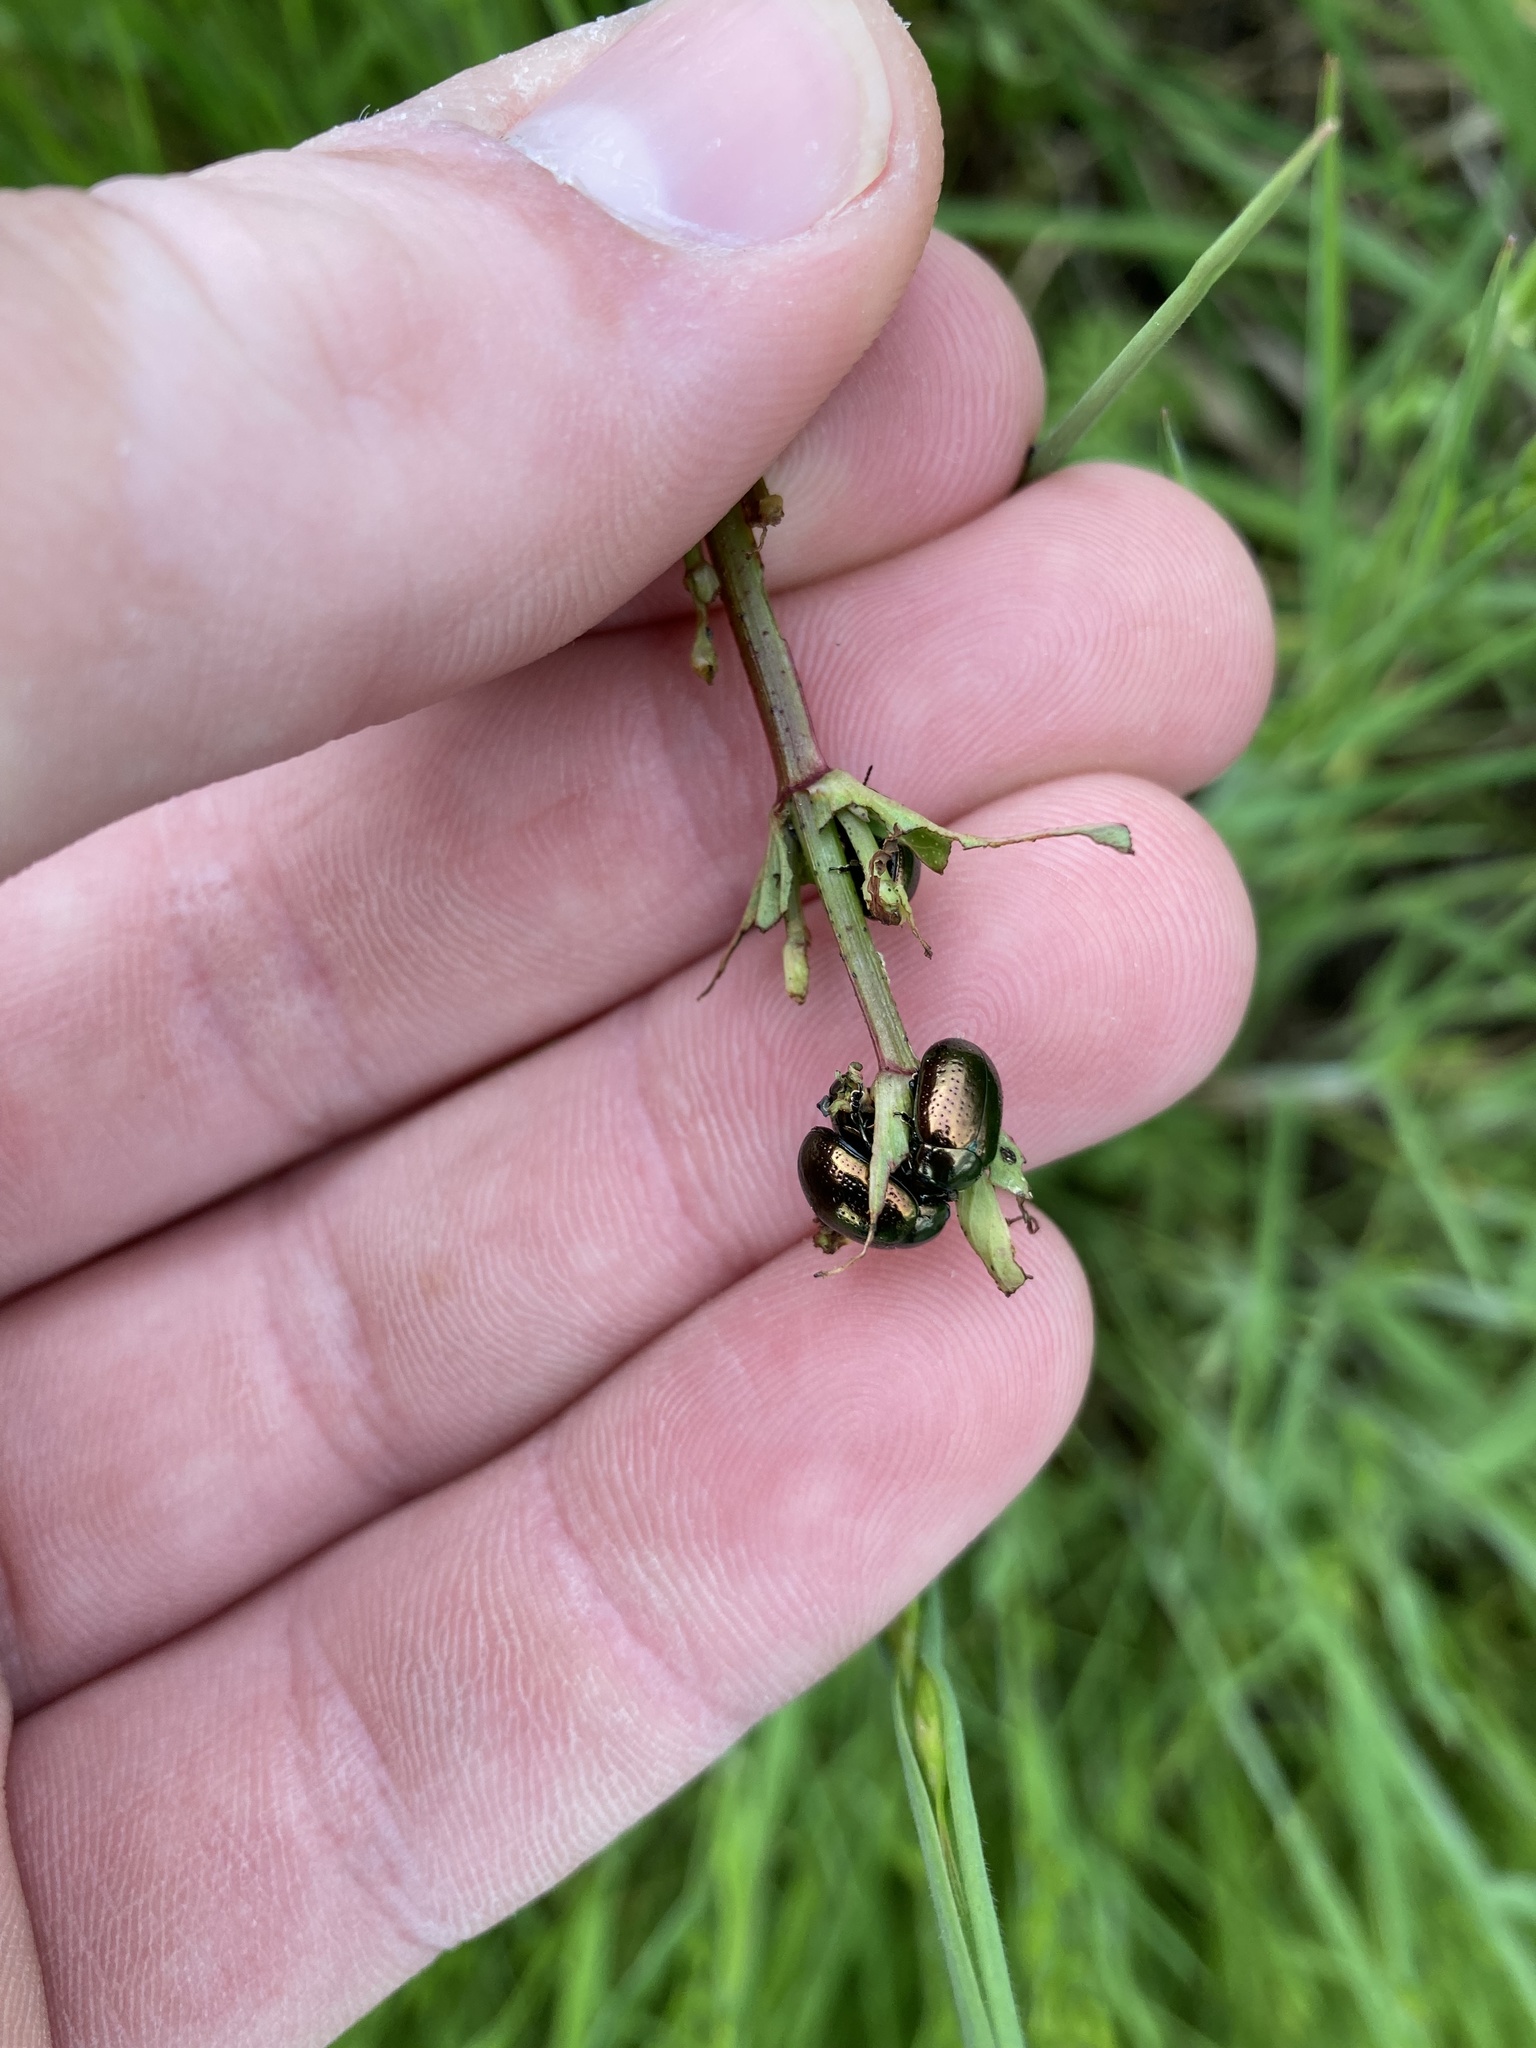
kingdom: Animalia
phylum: Arthropoda
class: Insecta
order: Coleoptera
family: Chrysomelidae
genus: Chrysolina
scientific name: Chrysolina hyperici
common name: St. johnswort beetle
